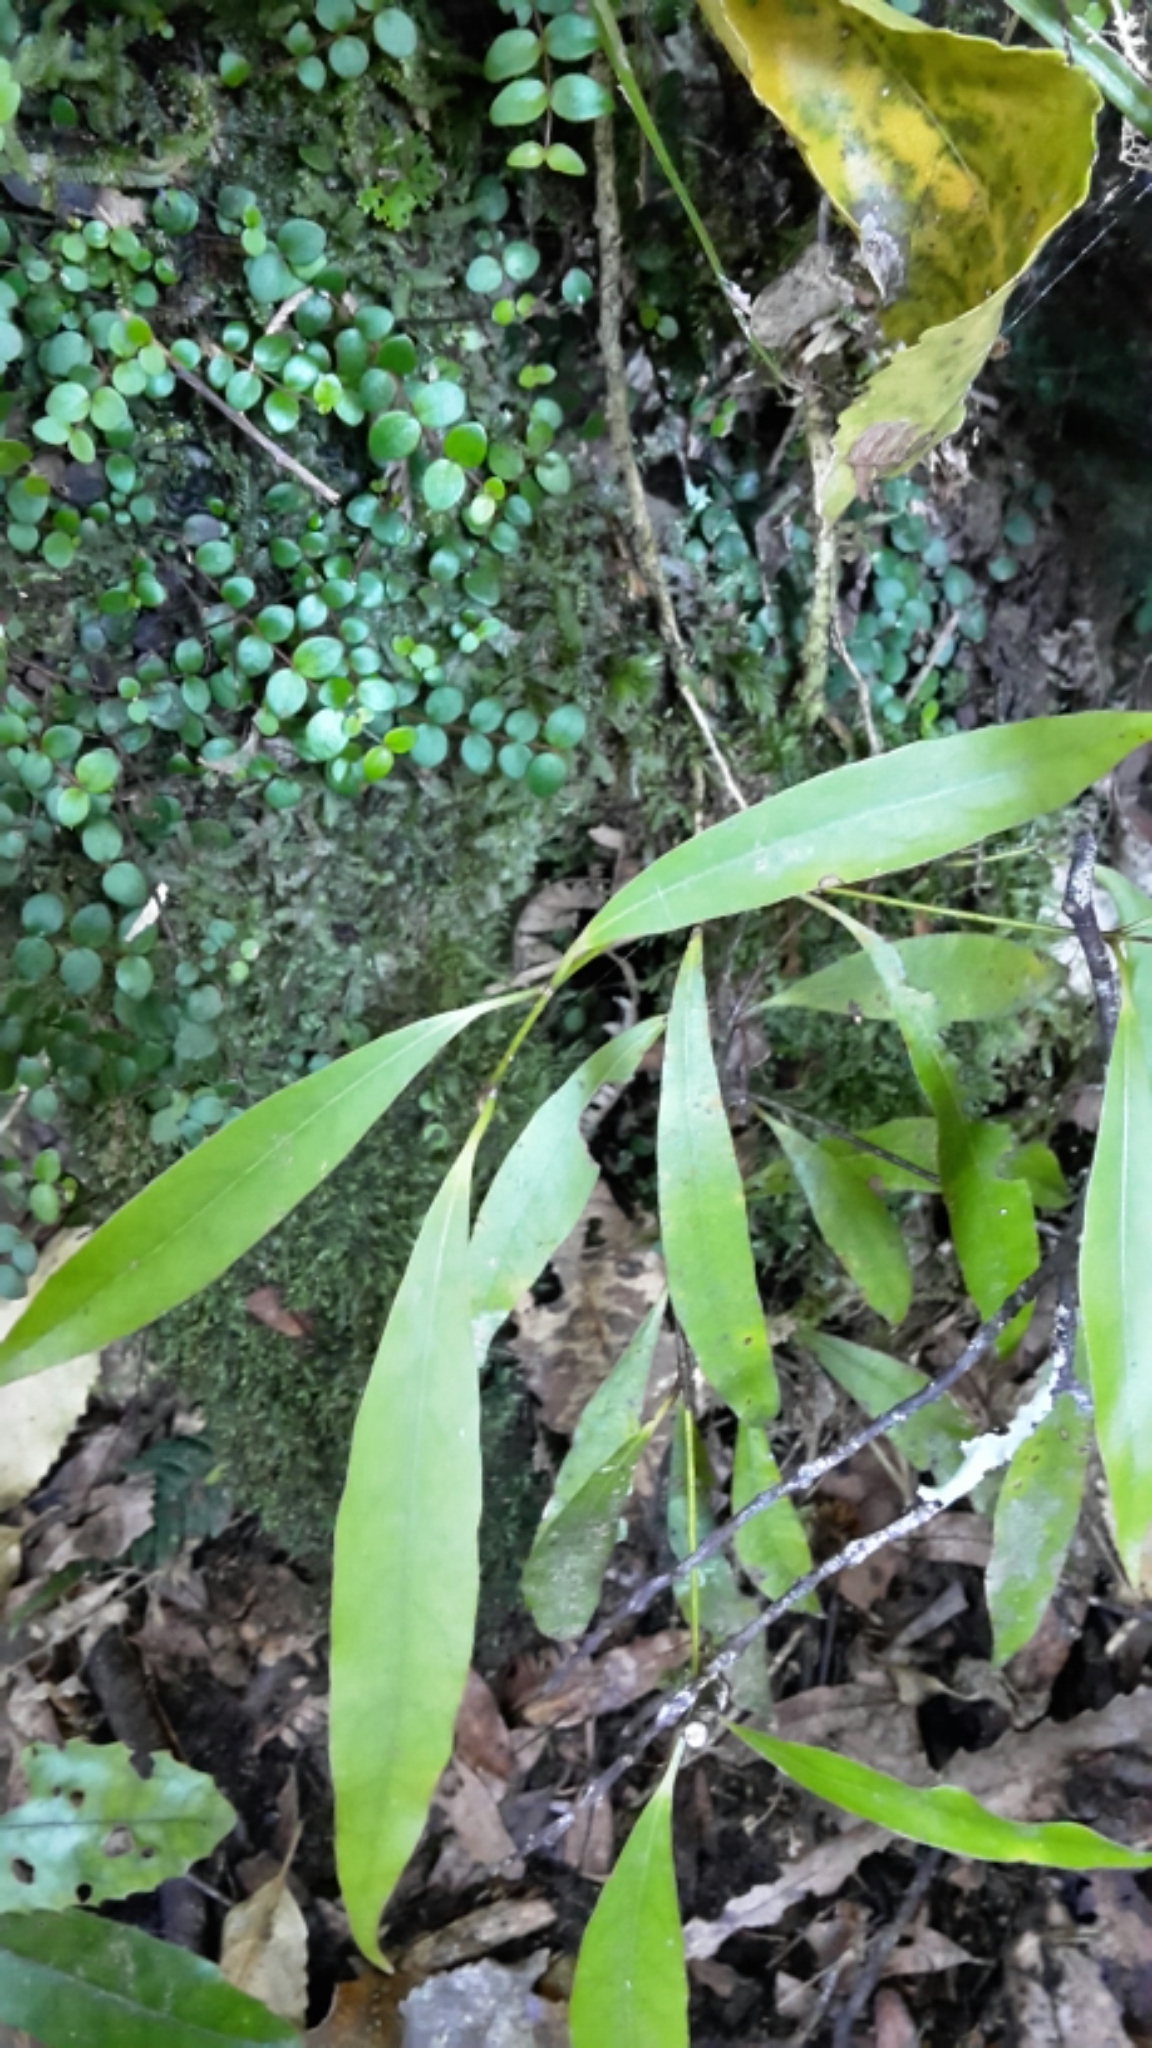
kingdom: Plantae
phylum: Tracheophyta
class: Magnoliopsida
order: Laurales
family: Lauraceae
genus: Beilschmiedia
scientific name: Beilschmiedia tawa
